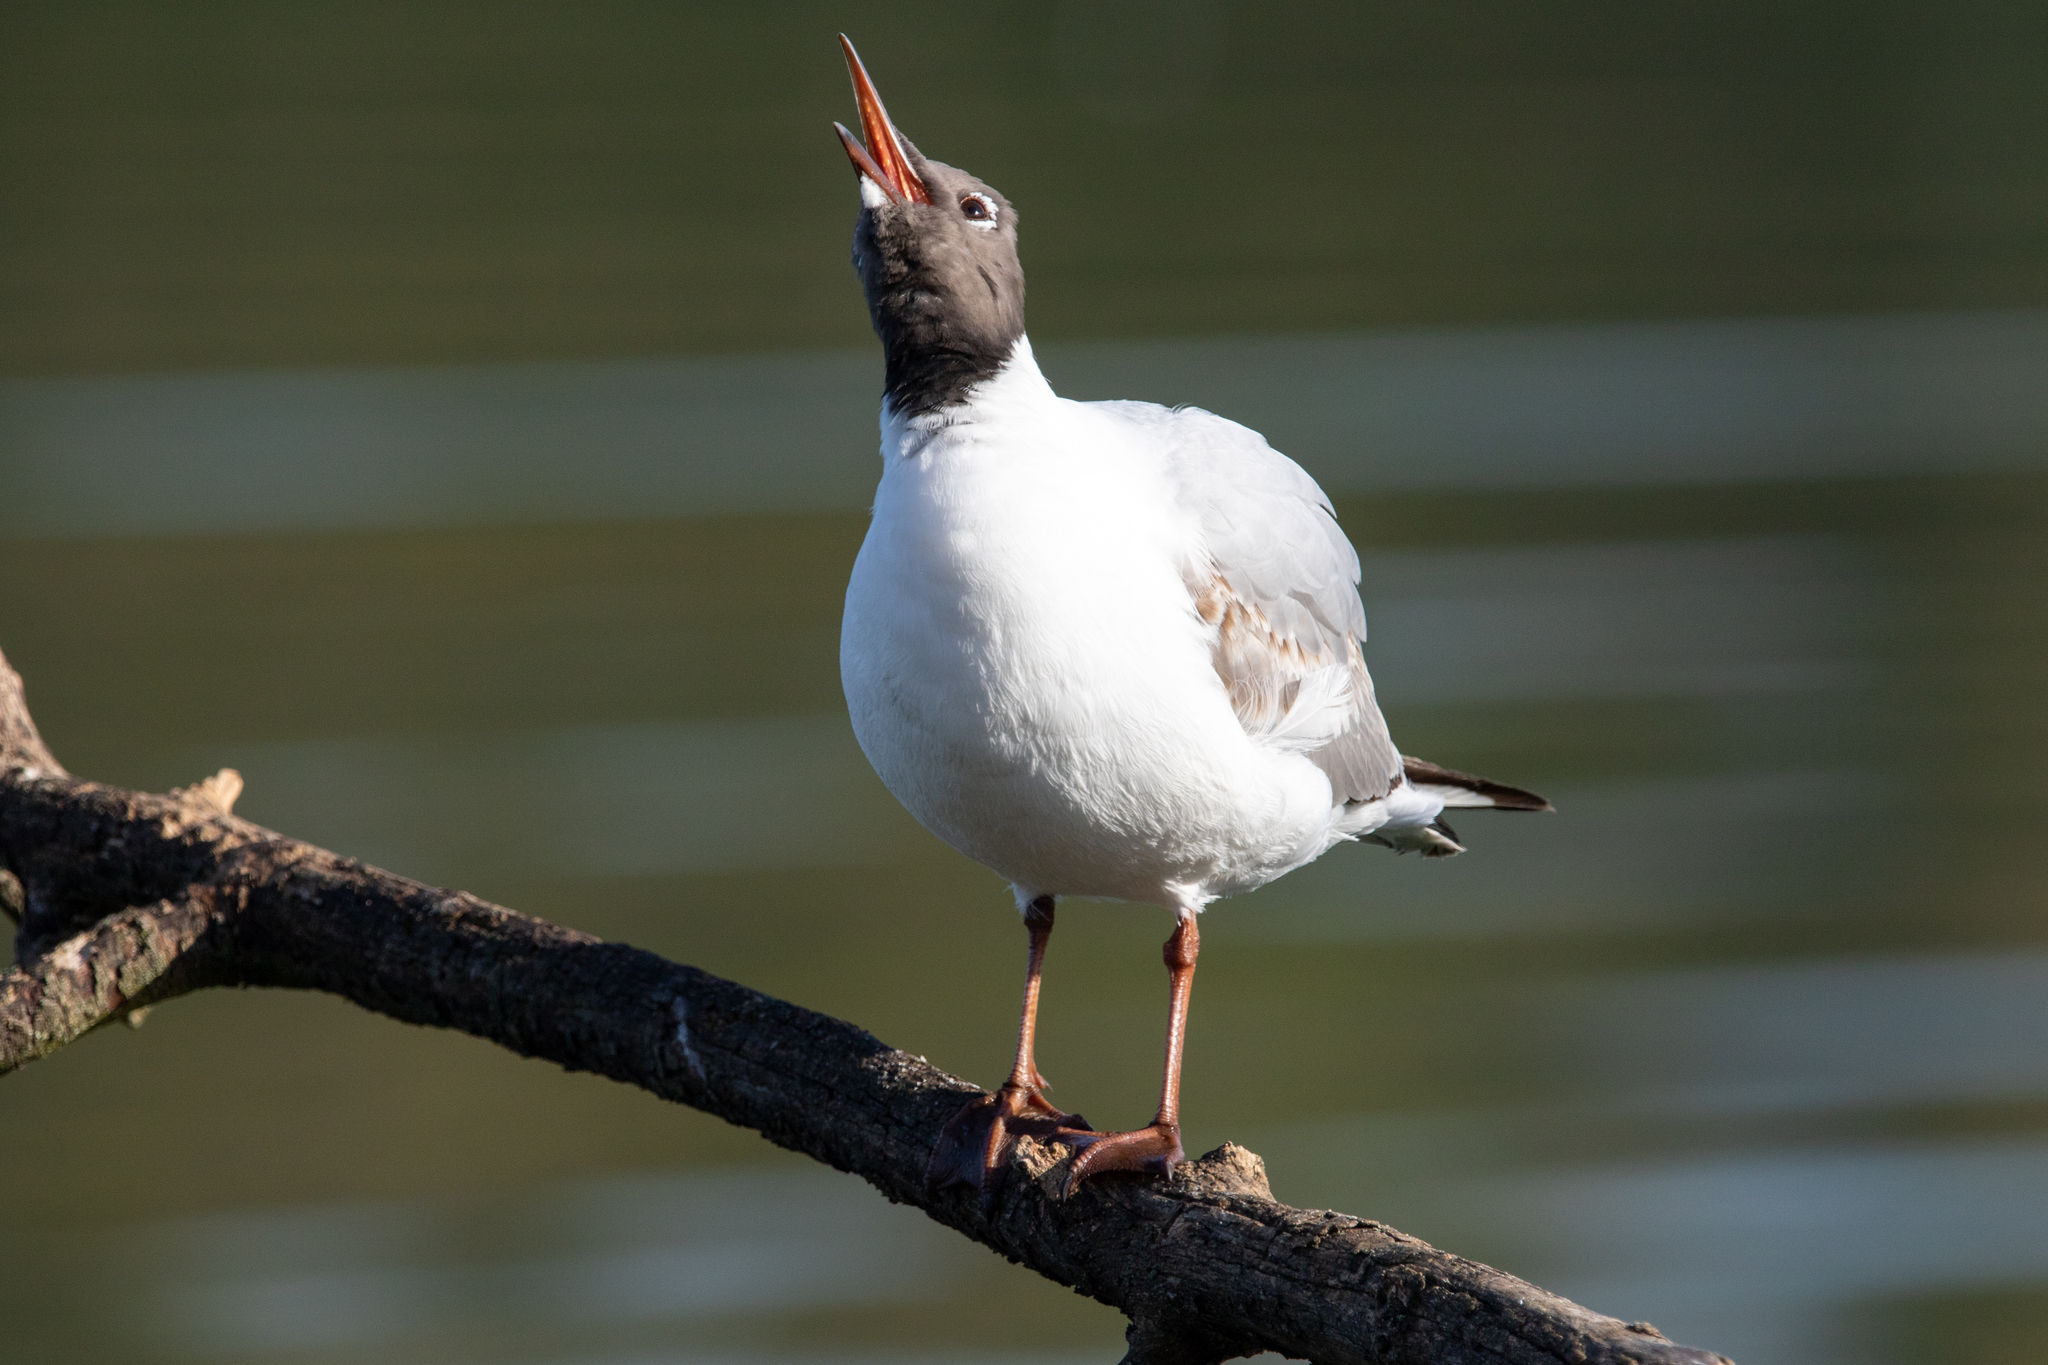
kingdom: Animalia
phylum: Chordata
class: Aves
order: Charadriiformes
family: Laridae
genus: Chroicocephalus
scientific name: Chroicocephalus ridibundus
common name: Black-headed gull
